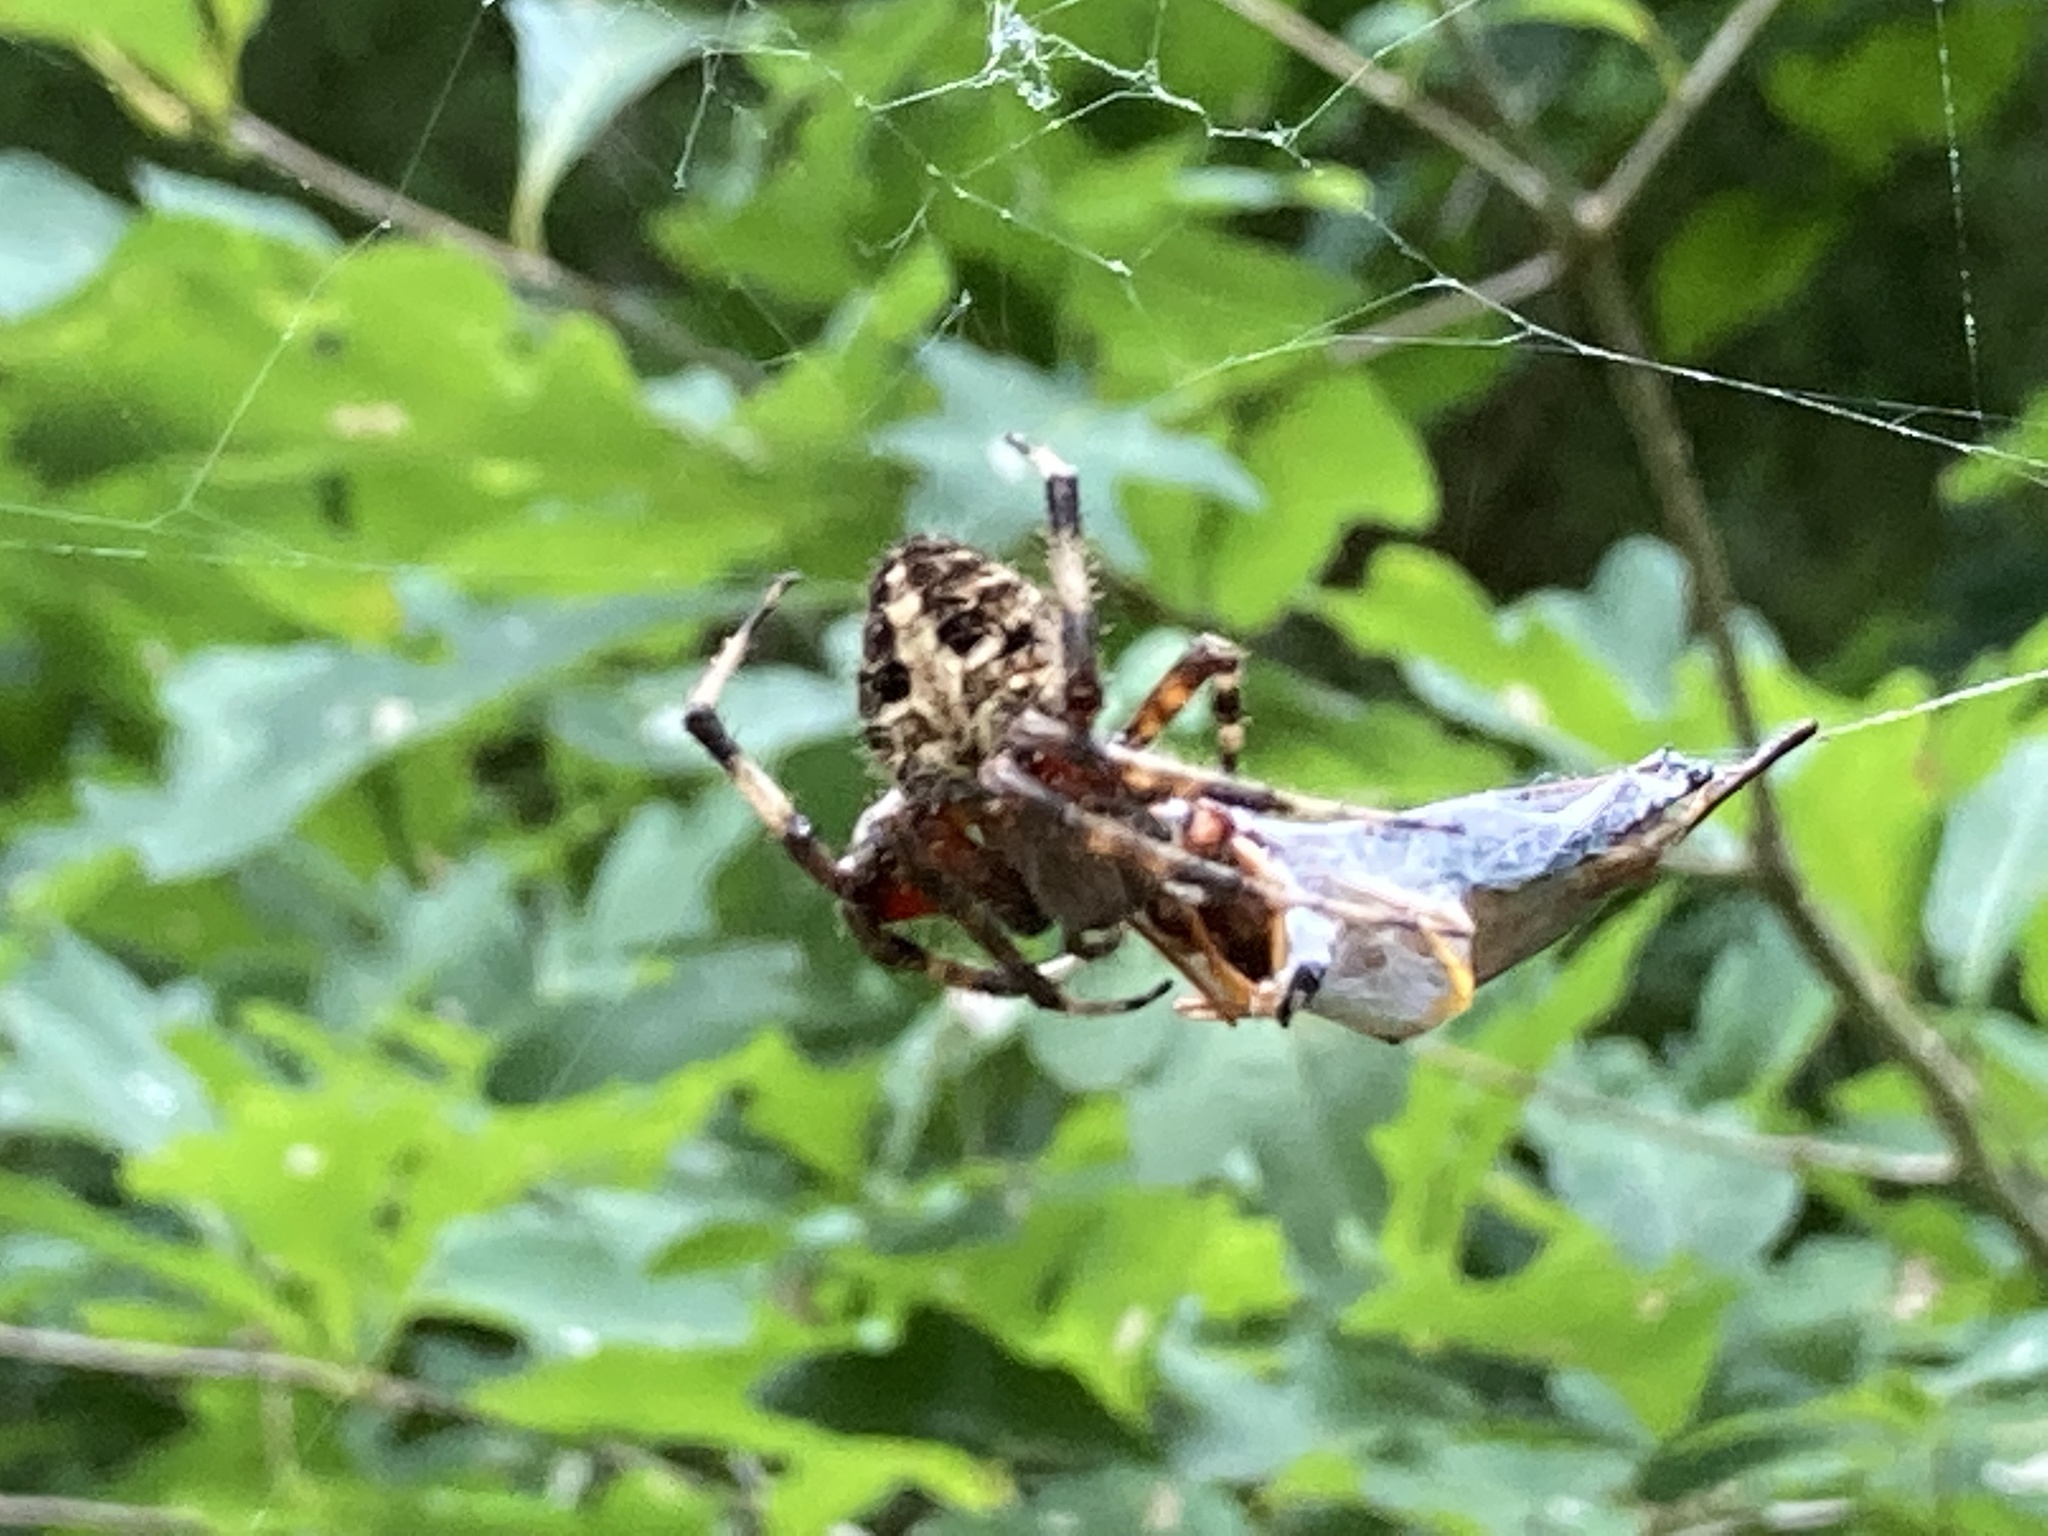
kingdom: Animalia
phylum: Arthropoda
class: Arachnida
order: Araneae
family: Araneidae
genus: Neoscona
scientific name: Neoscona domiciliorum
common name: Red-femured spotted orbweaver
